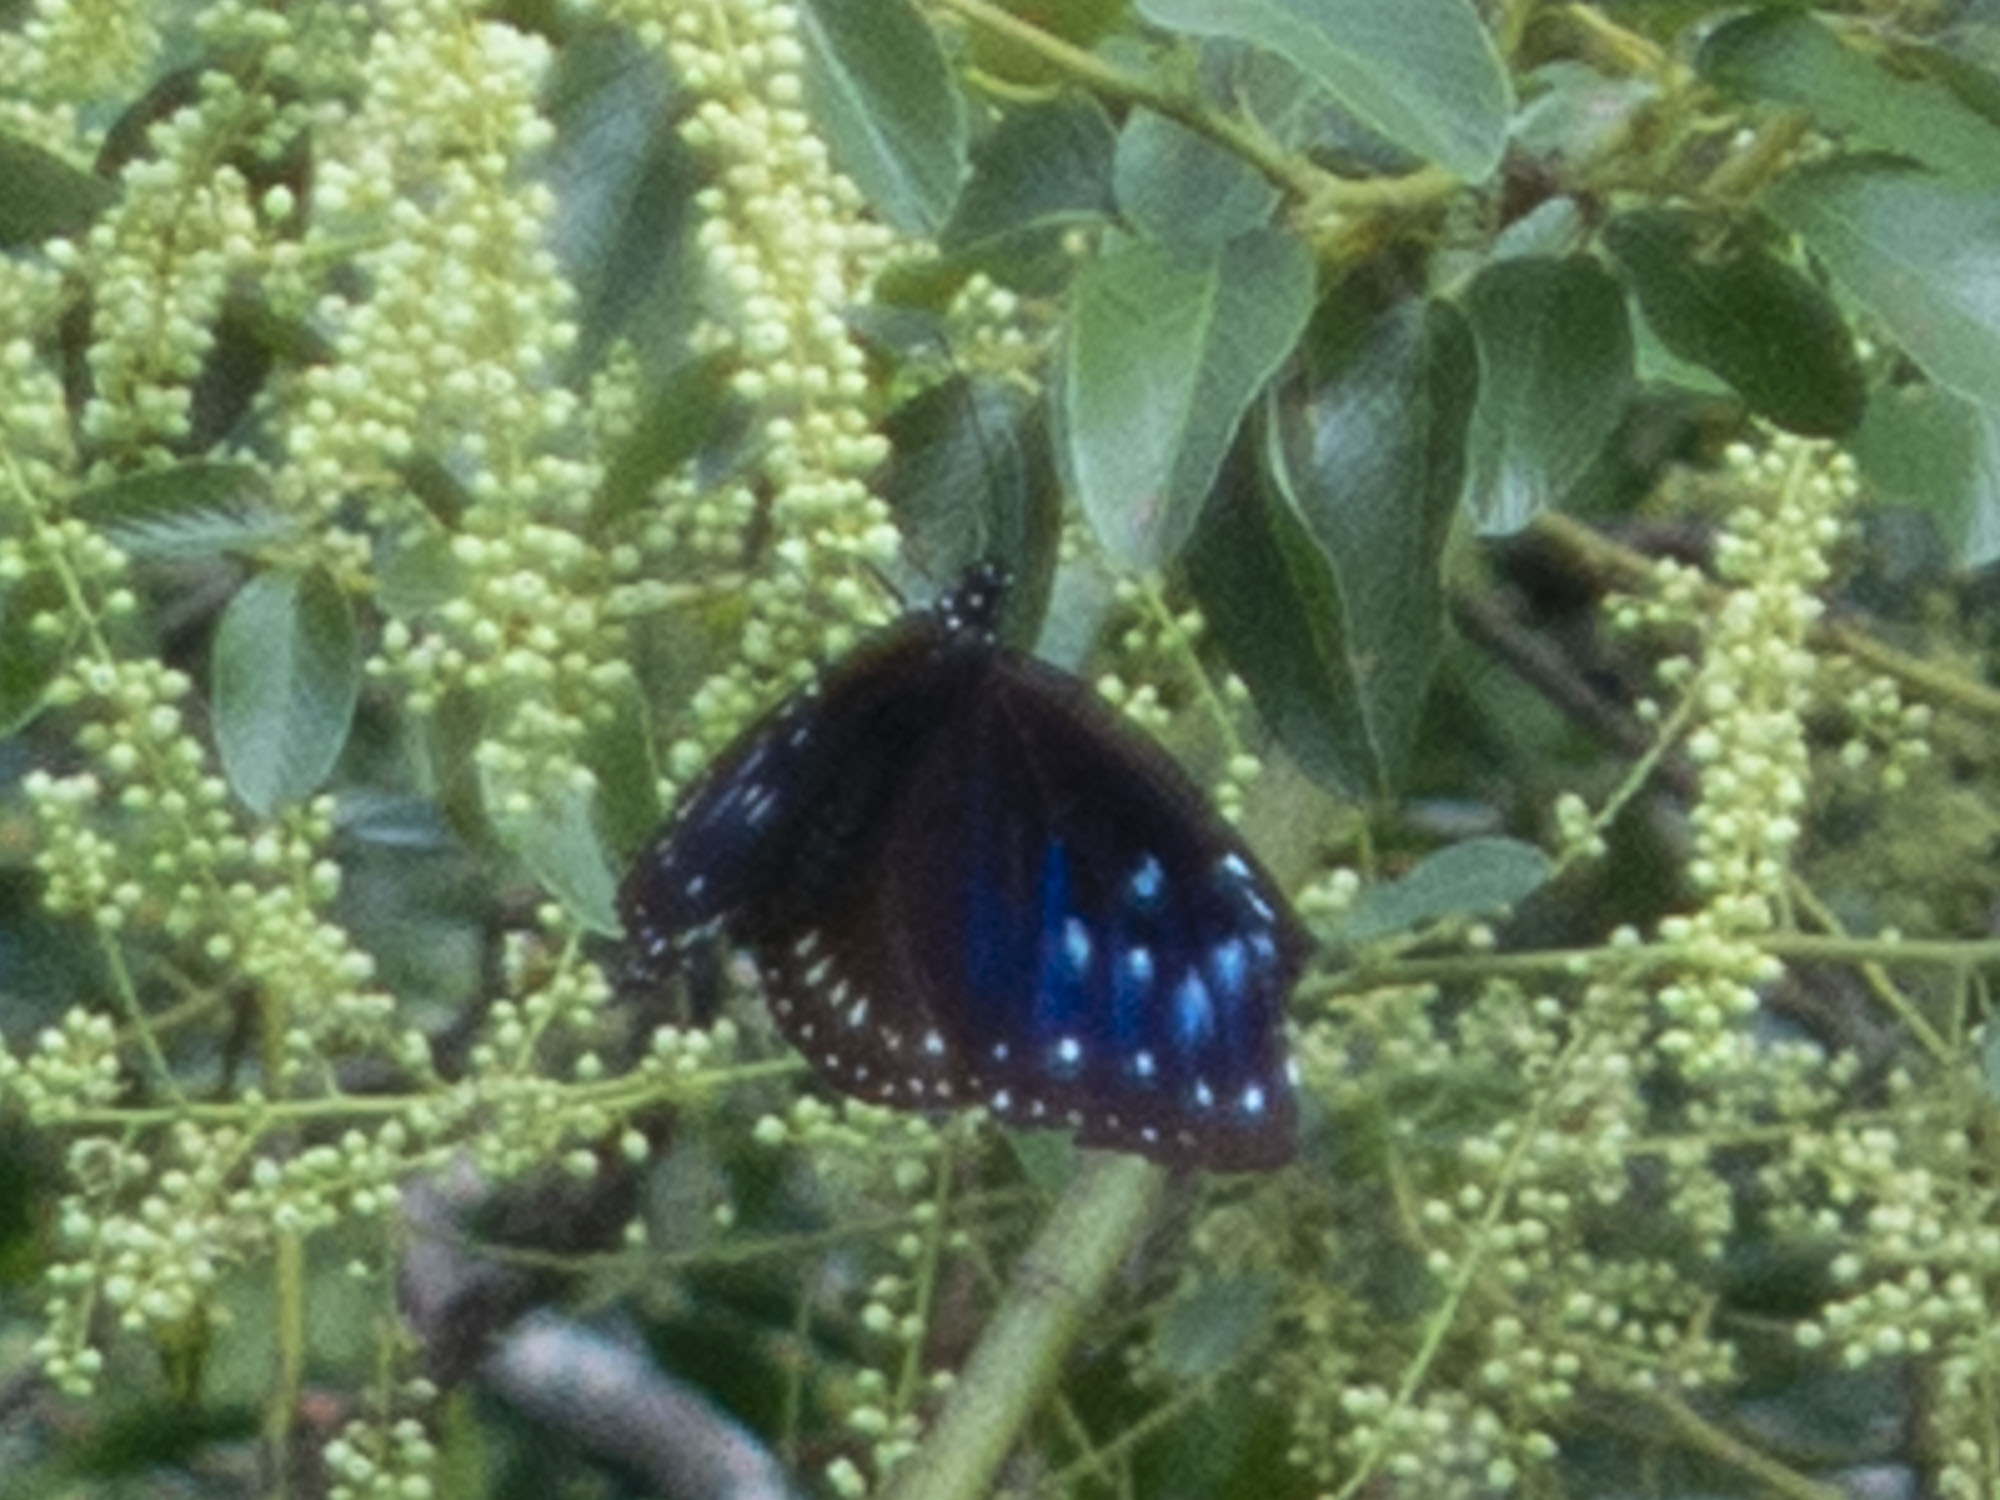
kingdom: Animalia
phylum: Arthropoda
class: Insecta
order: Lepidoptera
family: Nymphalidae
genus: Euploea
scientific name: Euploea midamus
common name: Blue-spotted crow butterfly
